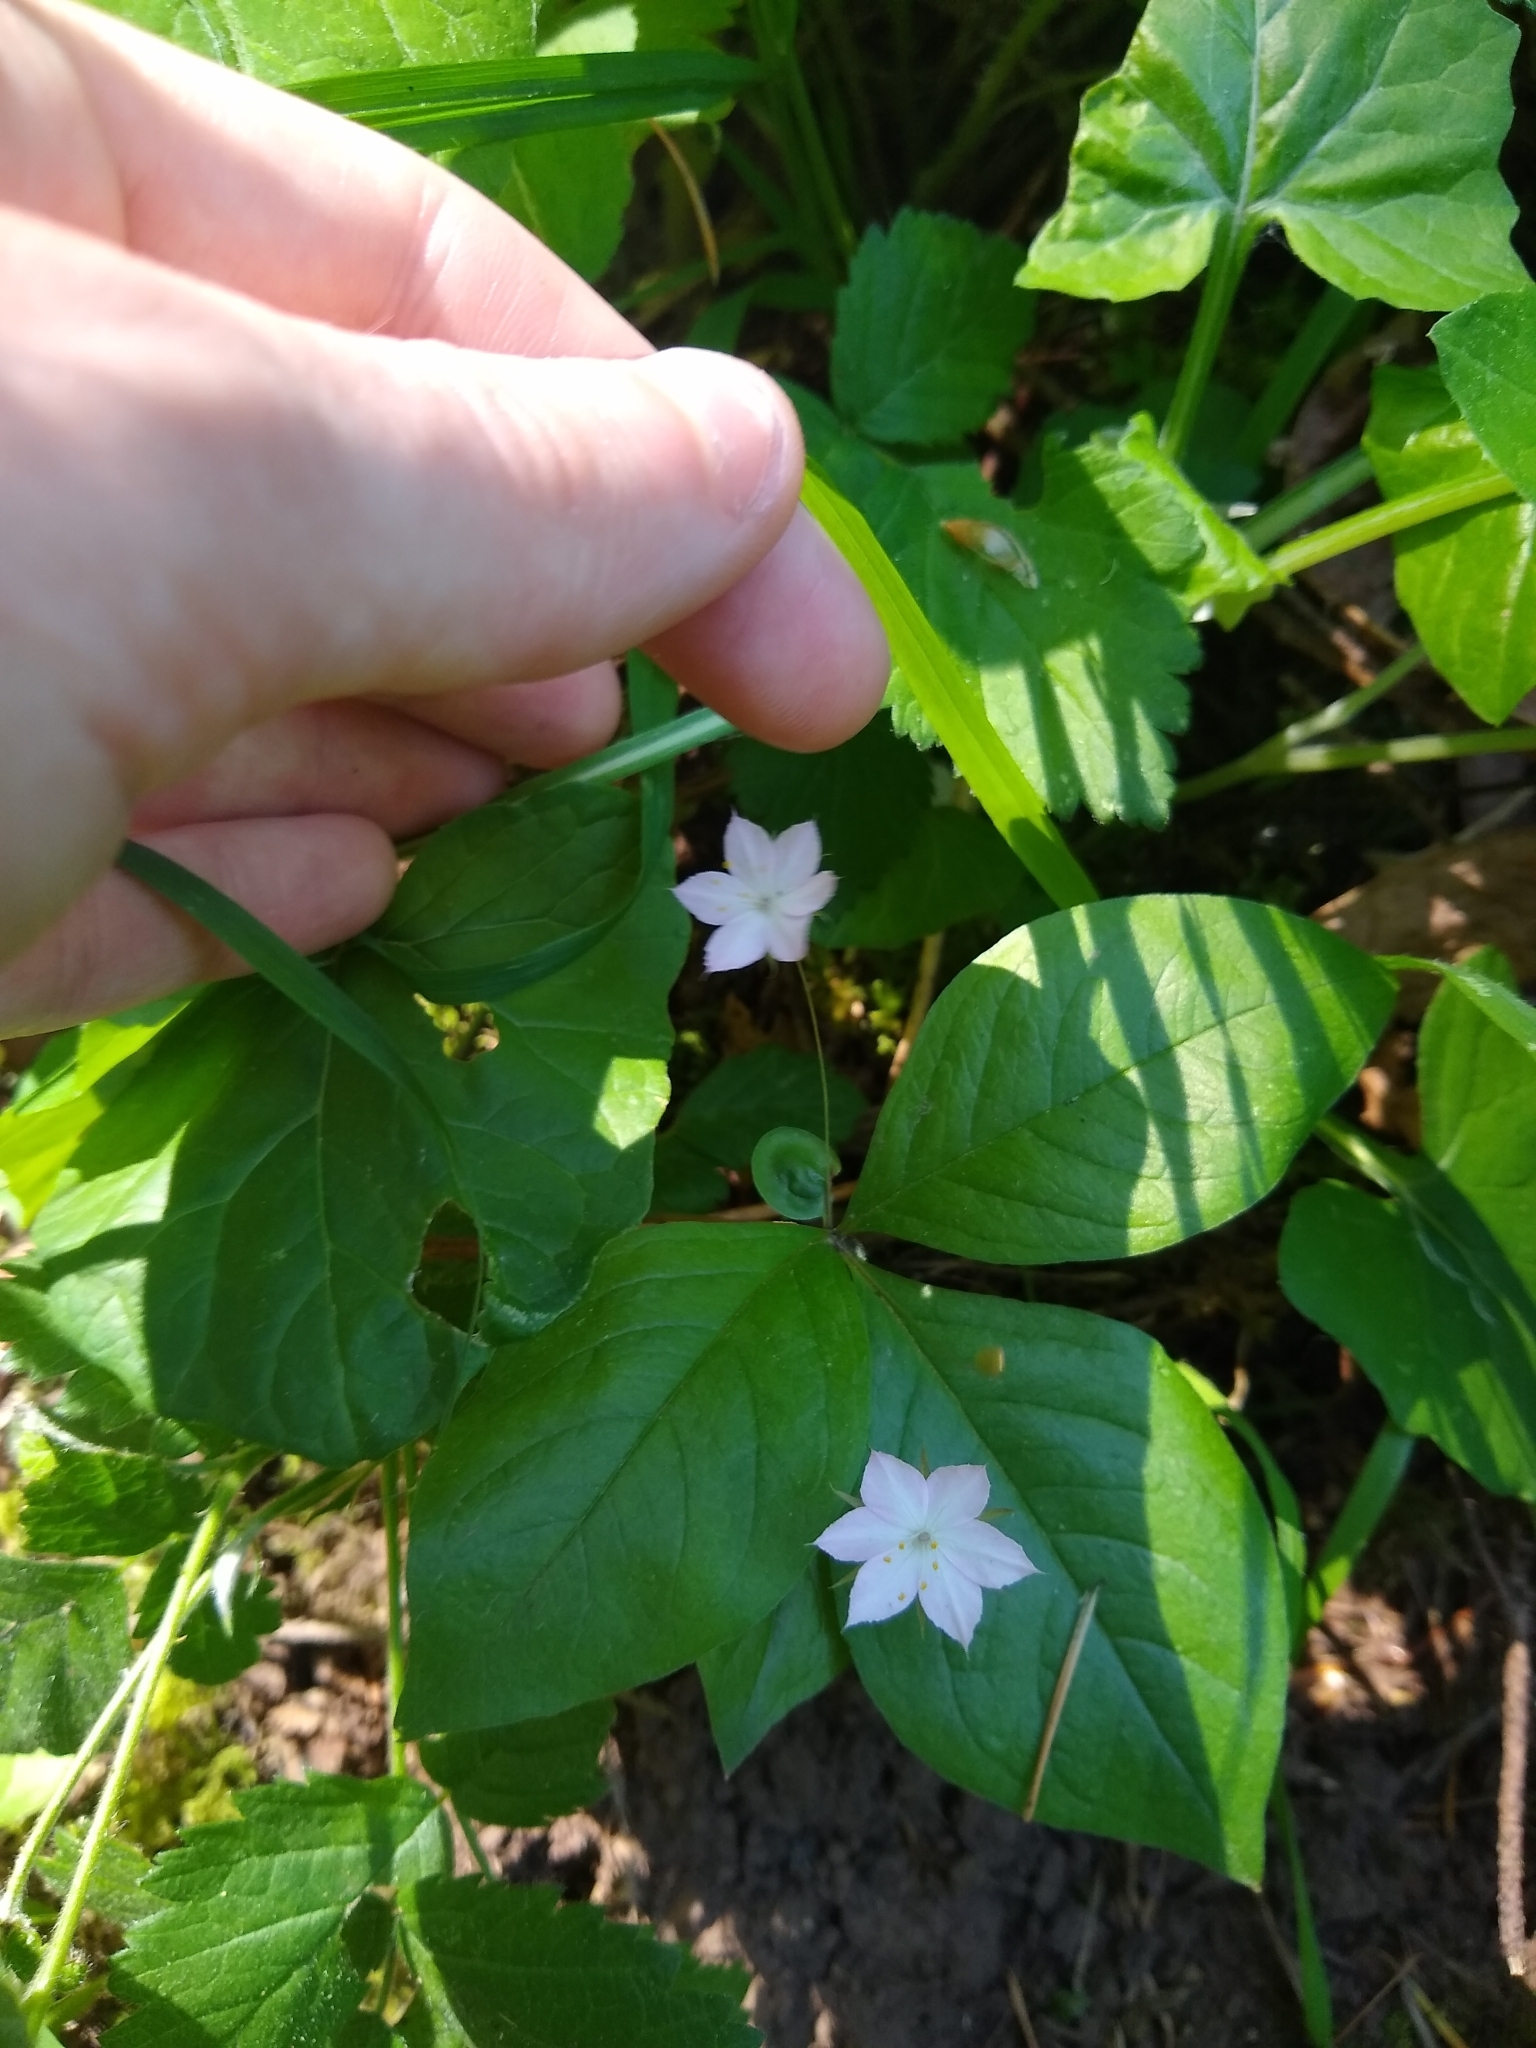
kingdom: Plantae
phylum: Tracheophyta
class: Magnoliopsida
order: Ericales
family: Primulaceae
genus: Lysimachia
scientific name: Lysimachia latifolia
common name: Pacific starflower
